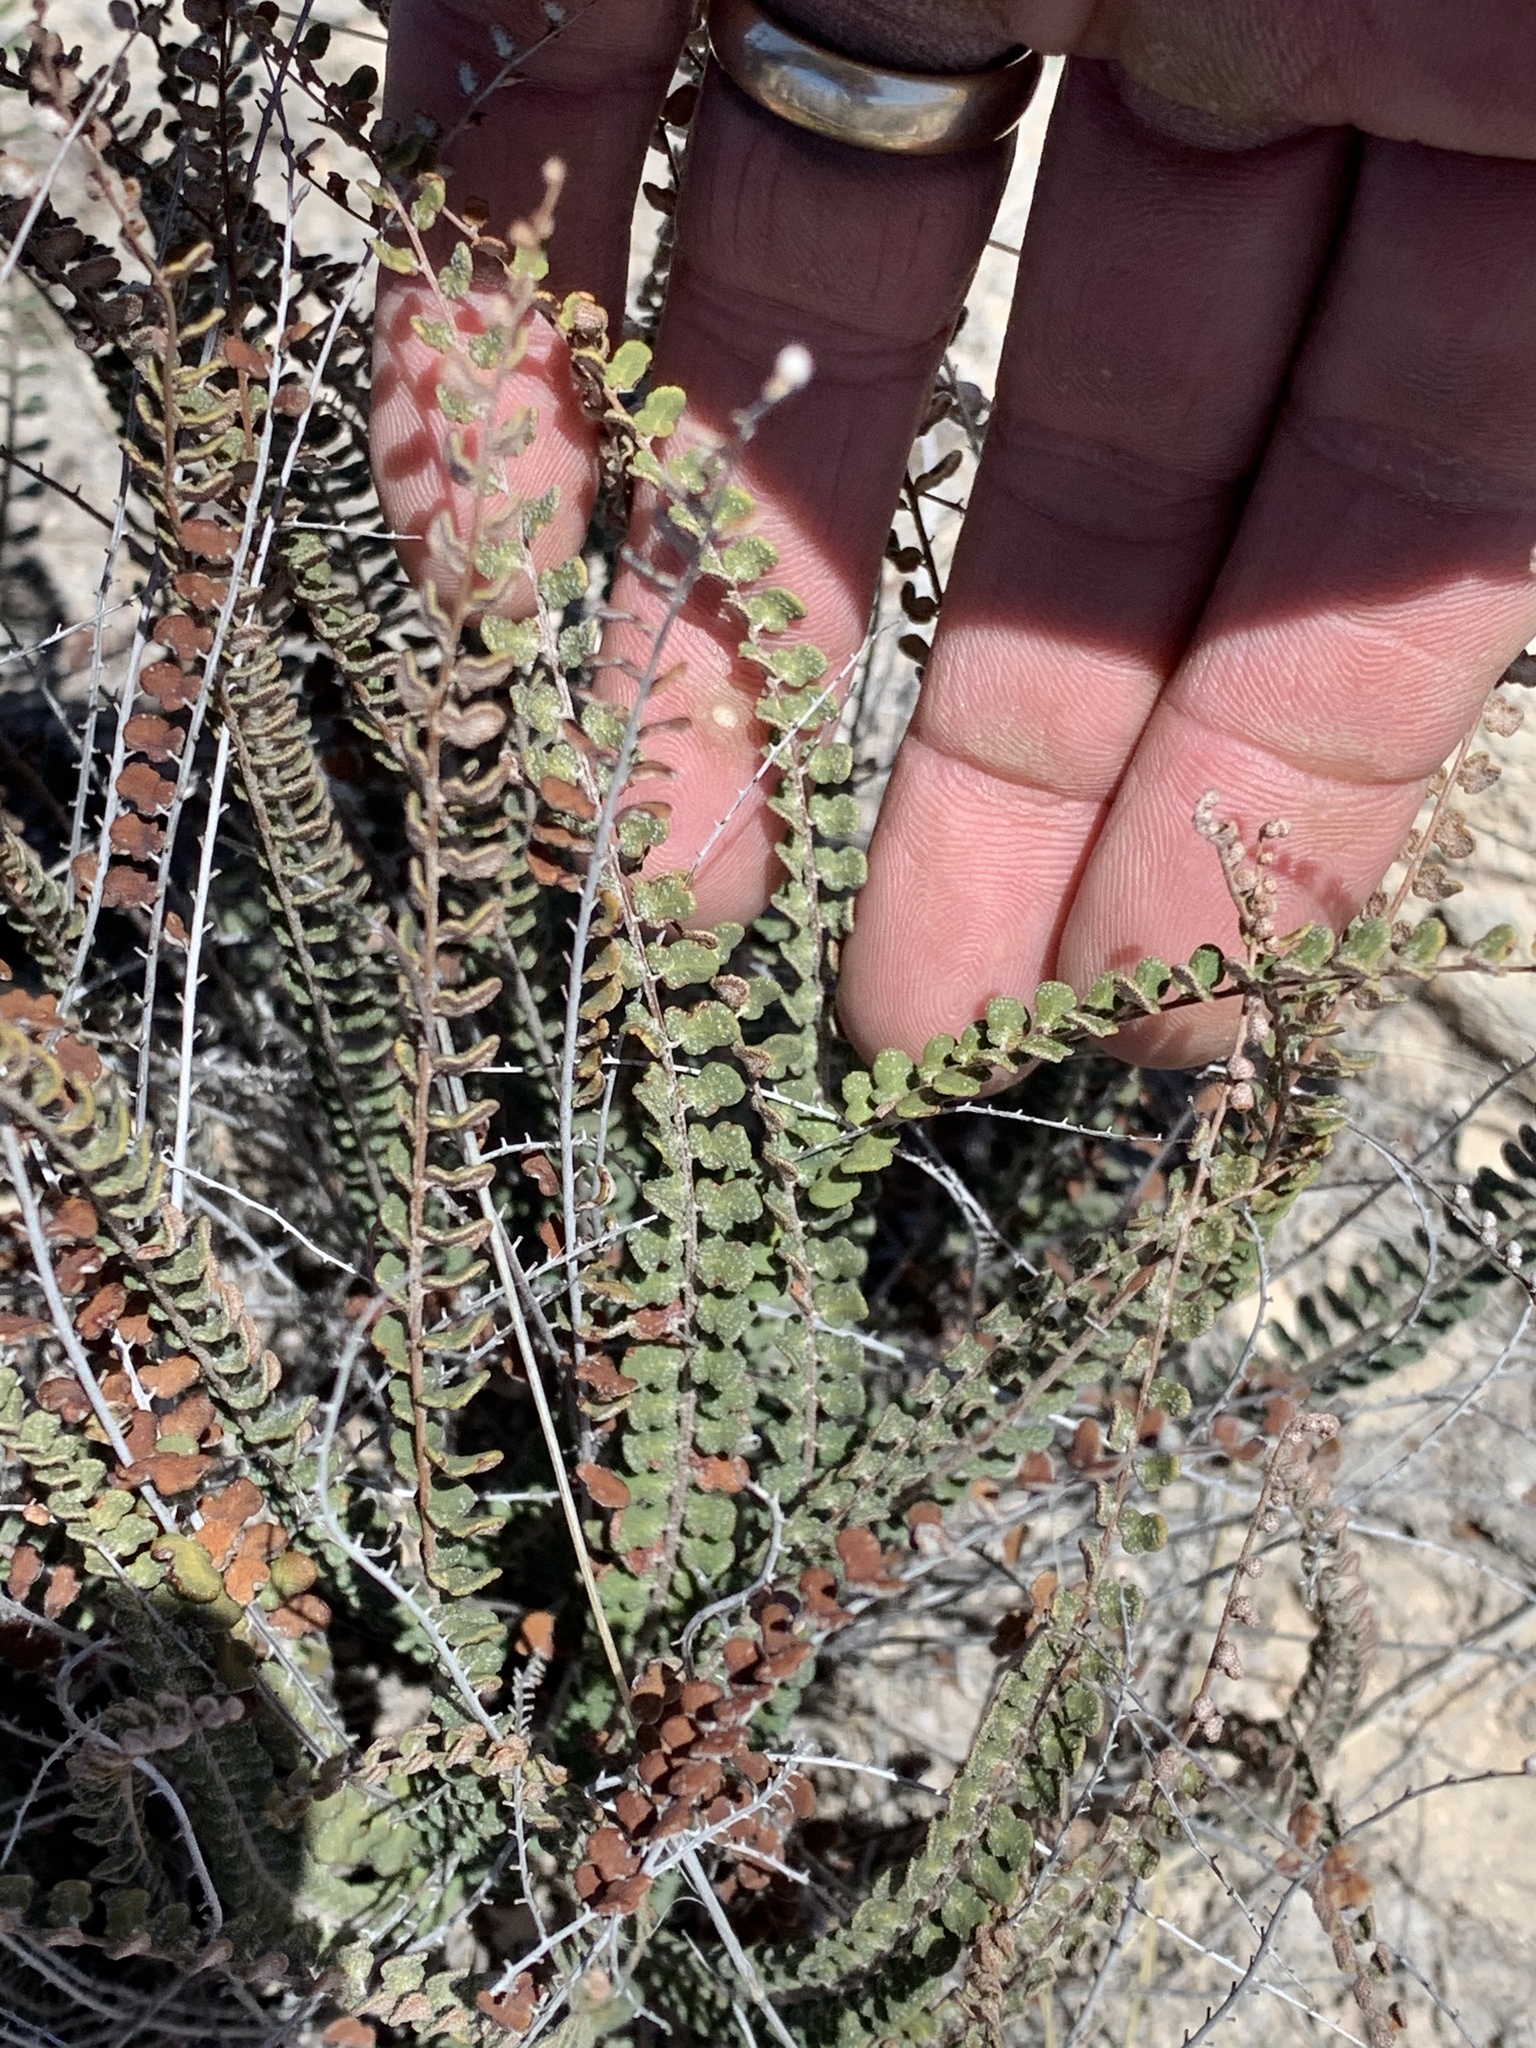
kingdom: Plantae
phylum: Tracheophyta
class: Polypodiopsida
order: Polypodiales
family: Pteridaceae
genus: Astrolepis
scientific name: Astrolepis cochisensis
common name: Scaly cloak fern
